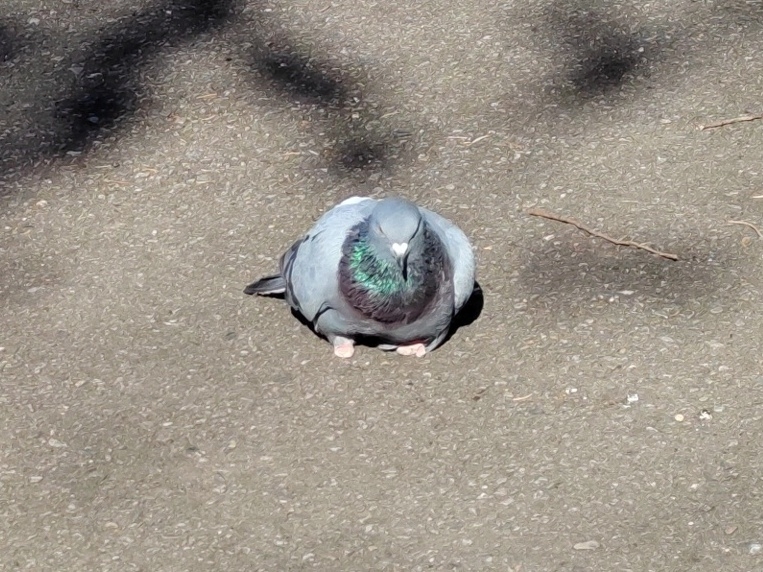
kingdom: Animalia
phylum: Chordata
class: Aves
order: Columbiformes
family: Columbidae
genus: Columba
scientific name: Columba livia
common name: Rock pigeon
